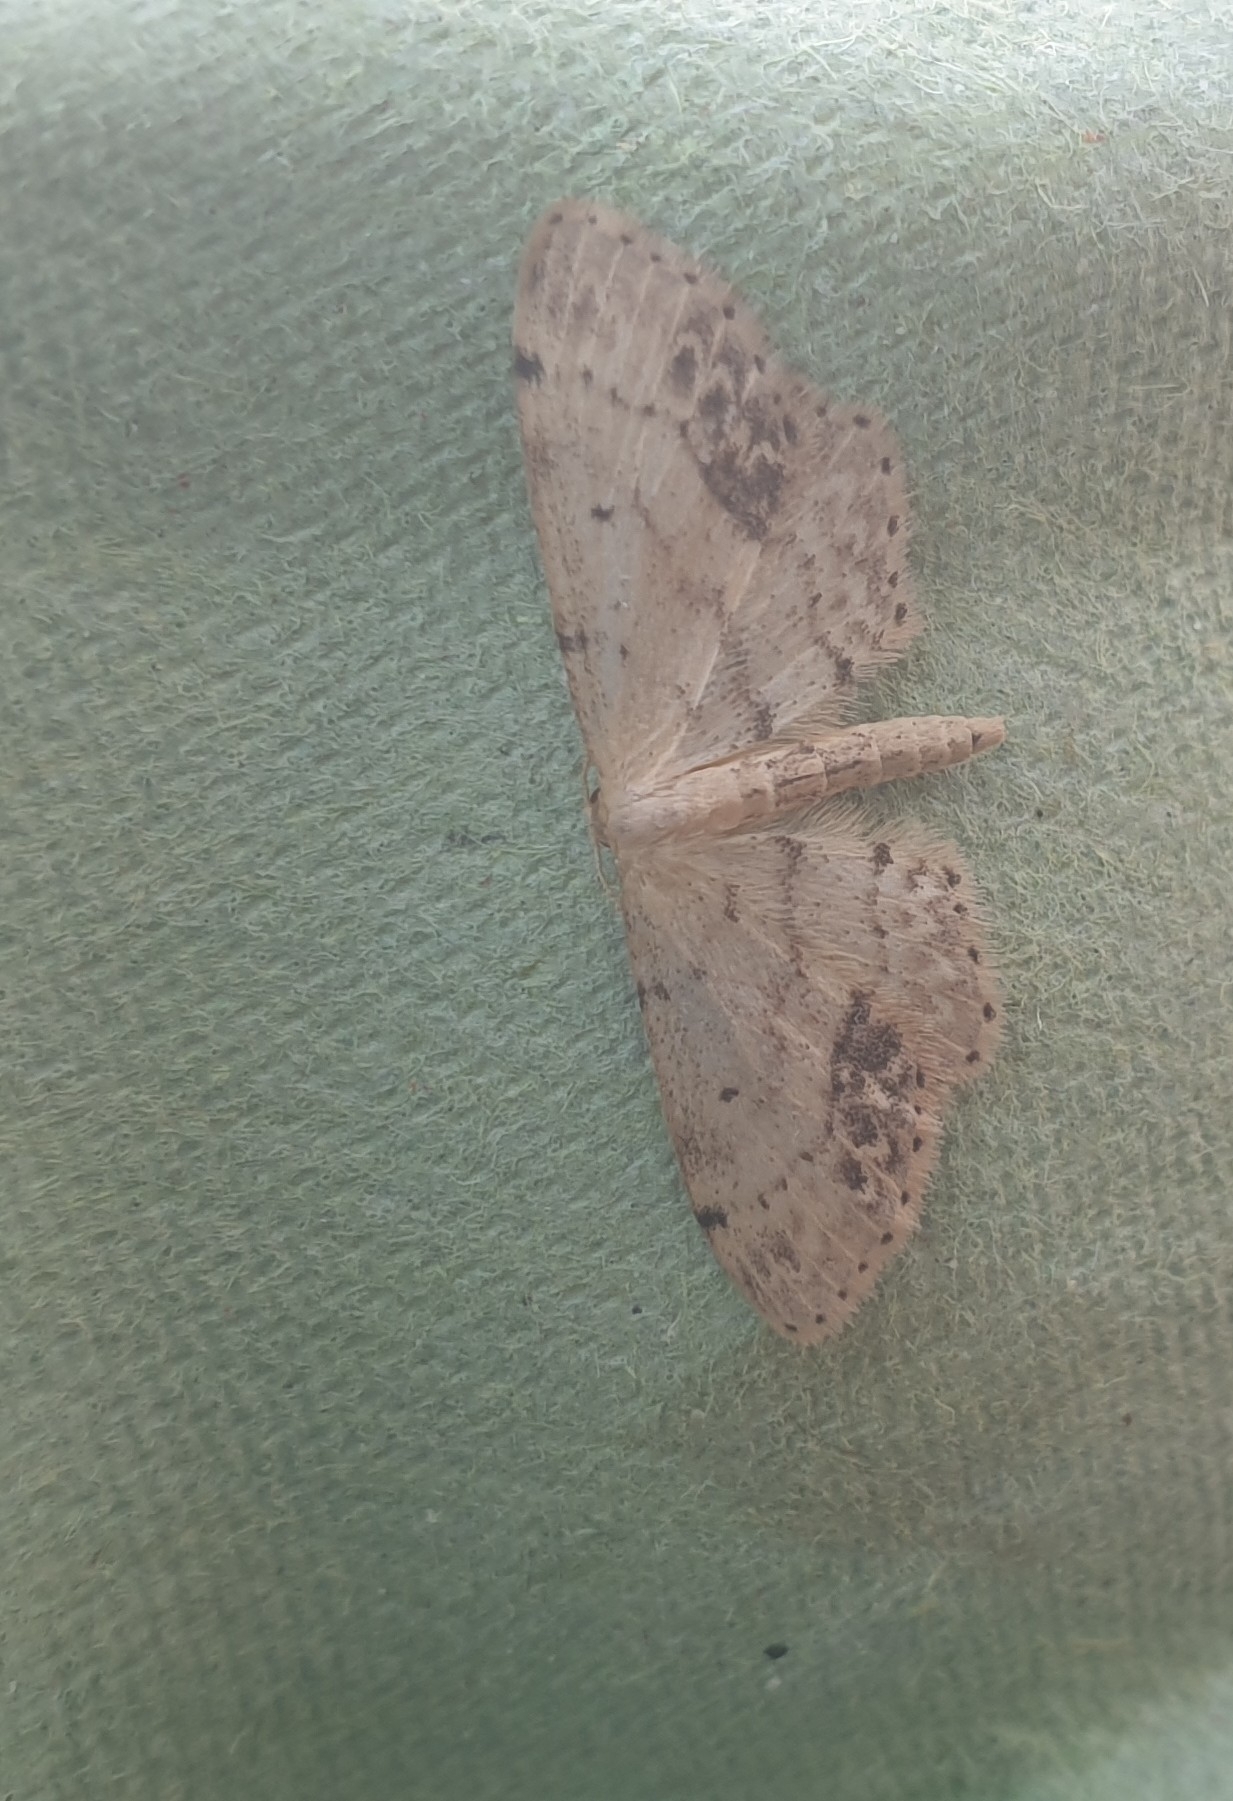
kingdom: Animalia
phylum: Arthropoda
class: Insecta
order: Lepidoptera
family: Geometridae
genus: Idaea
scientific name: Idaea dimidiata
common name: Single-dotted wave
